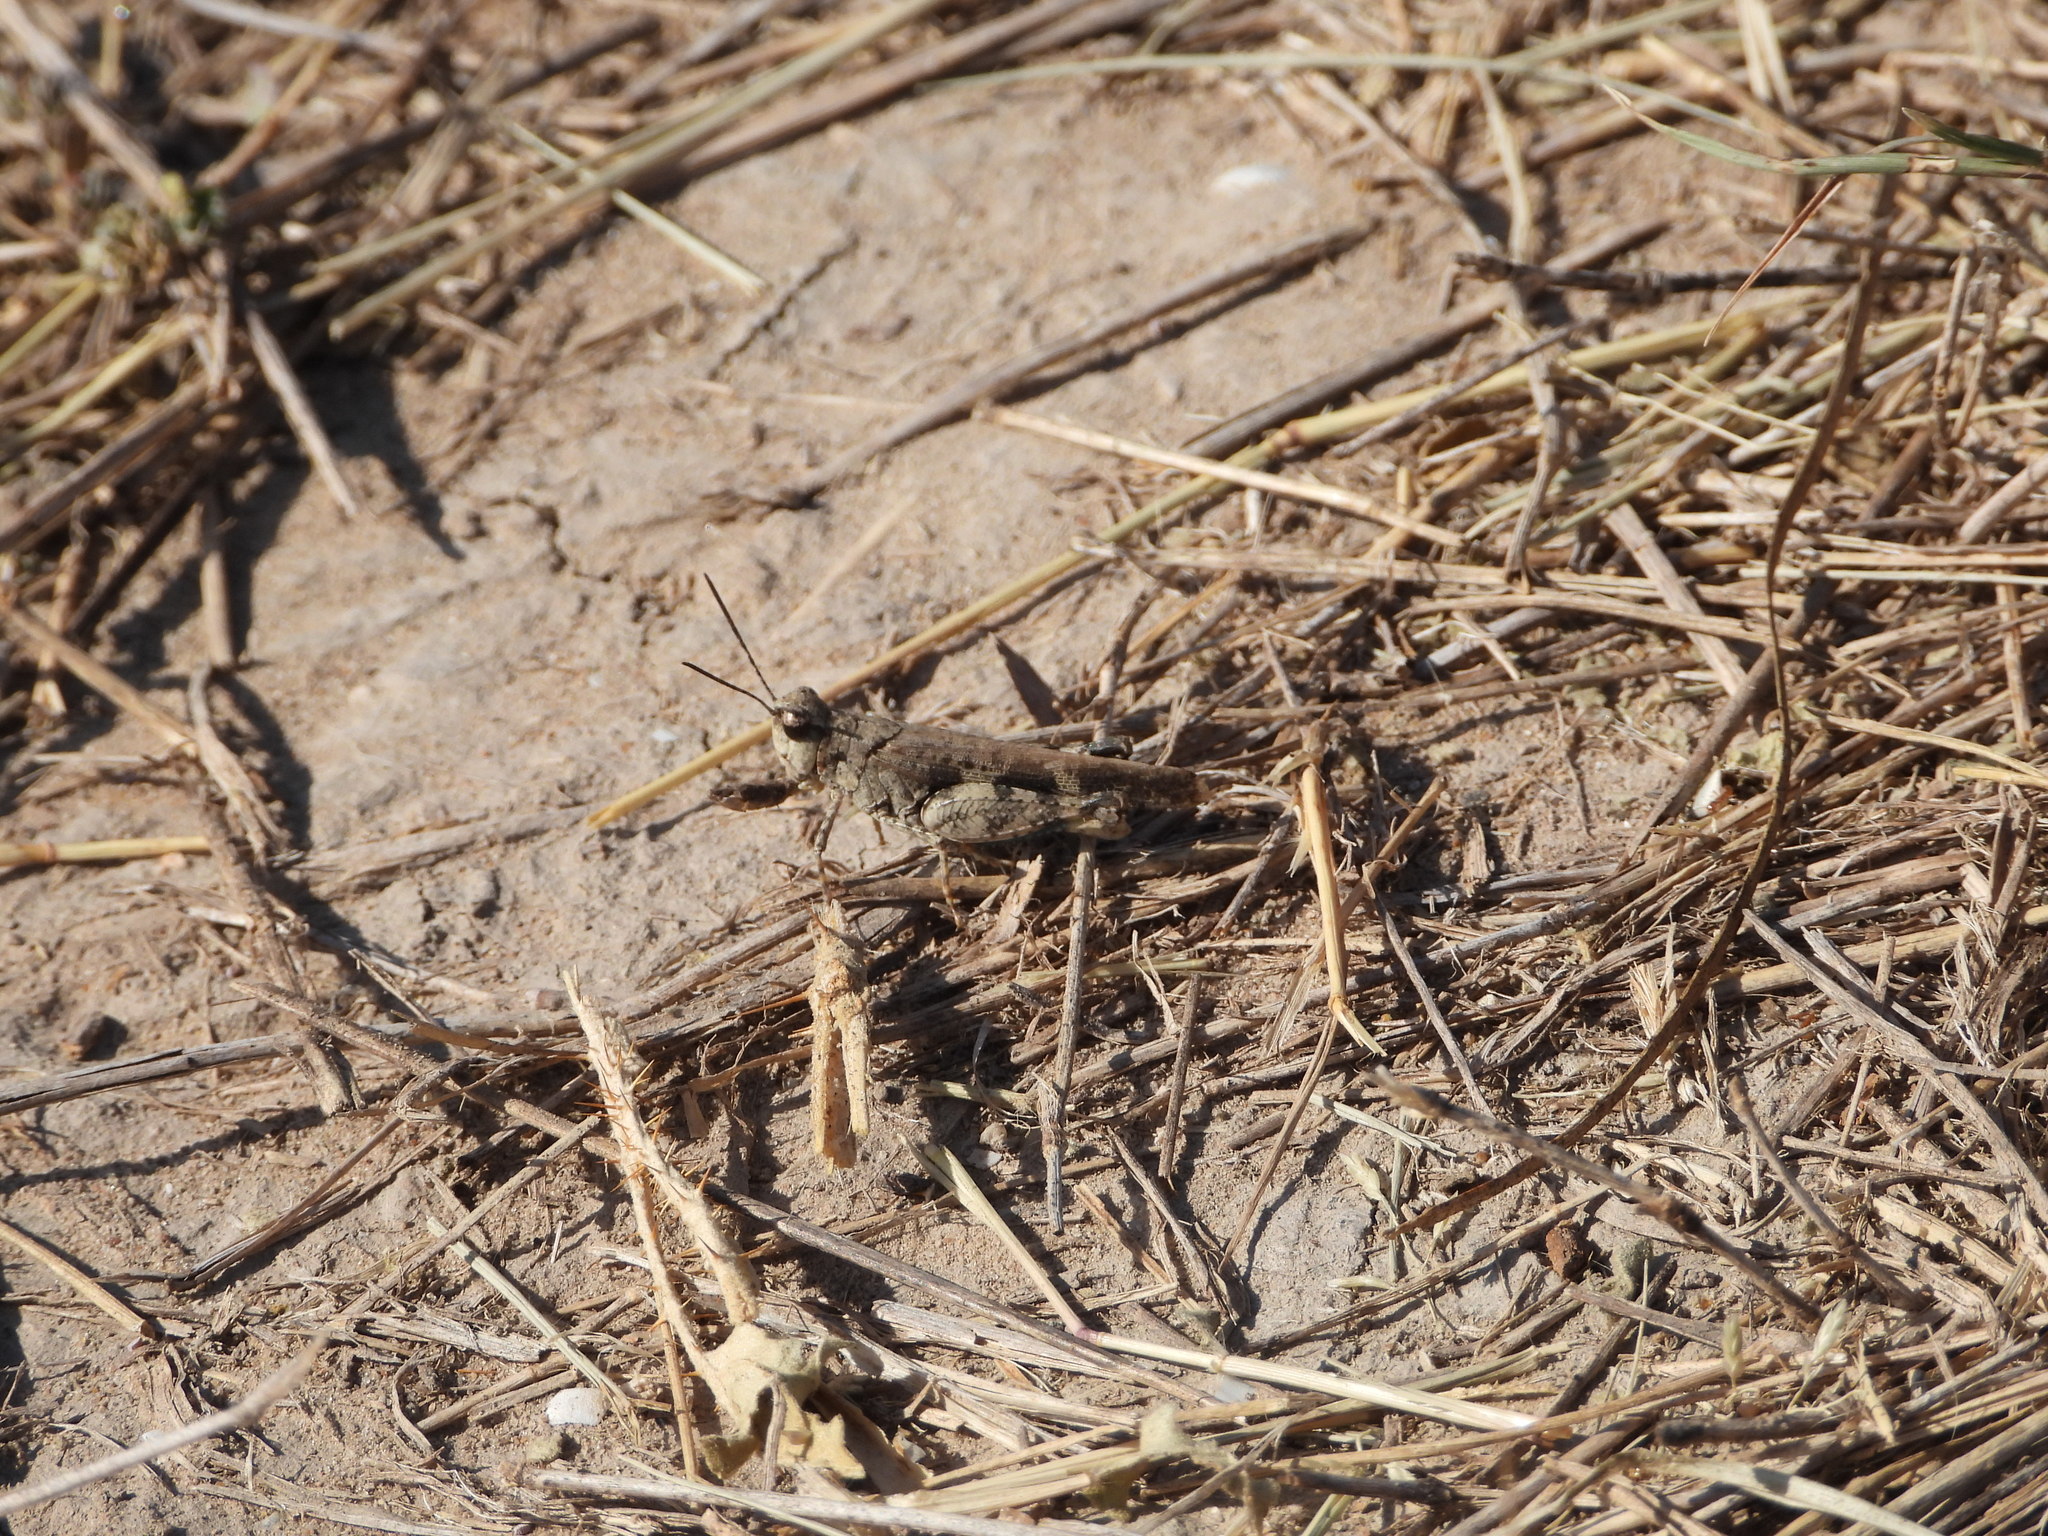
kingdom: Animalia
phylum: Arthropoda
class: Insecta
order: Orthoptera
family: Acrididae
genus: Nebulatettix
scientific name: Nebulatettix subgracilis
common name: Southwestern dusky grasshopper
